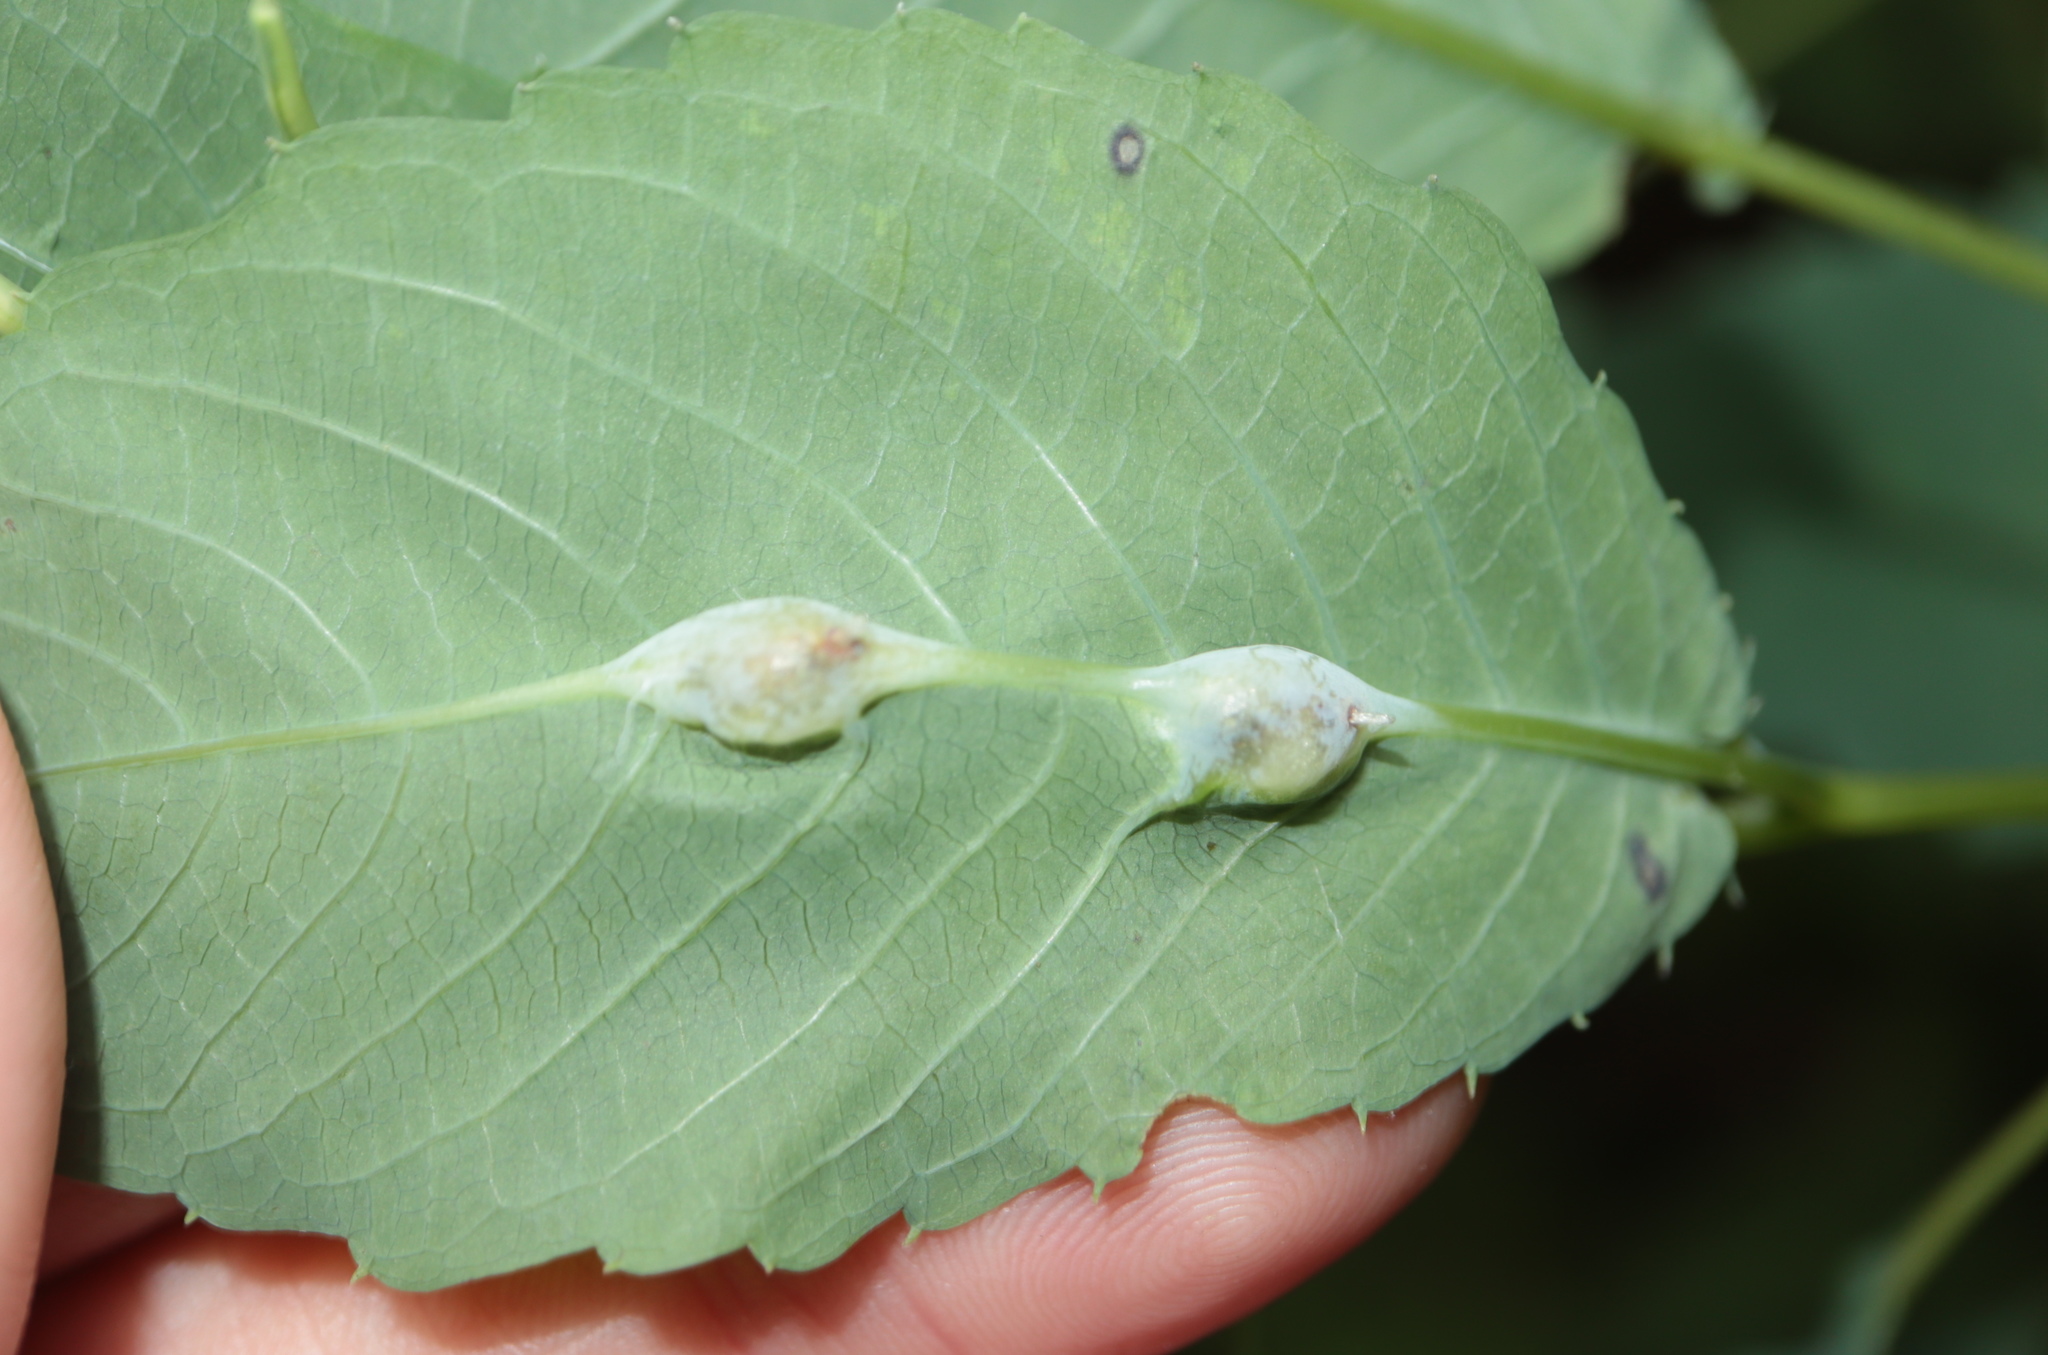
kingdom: Animalia
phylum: Arthropoda
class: Insecta
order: Diptera
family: Cecidomyiidae
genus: Neolasioptera
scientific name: Neolasioptera impatientifolia
